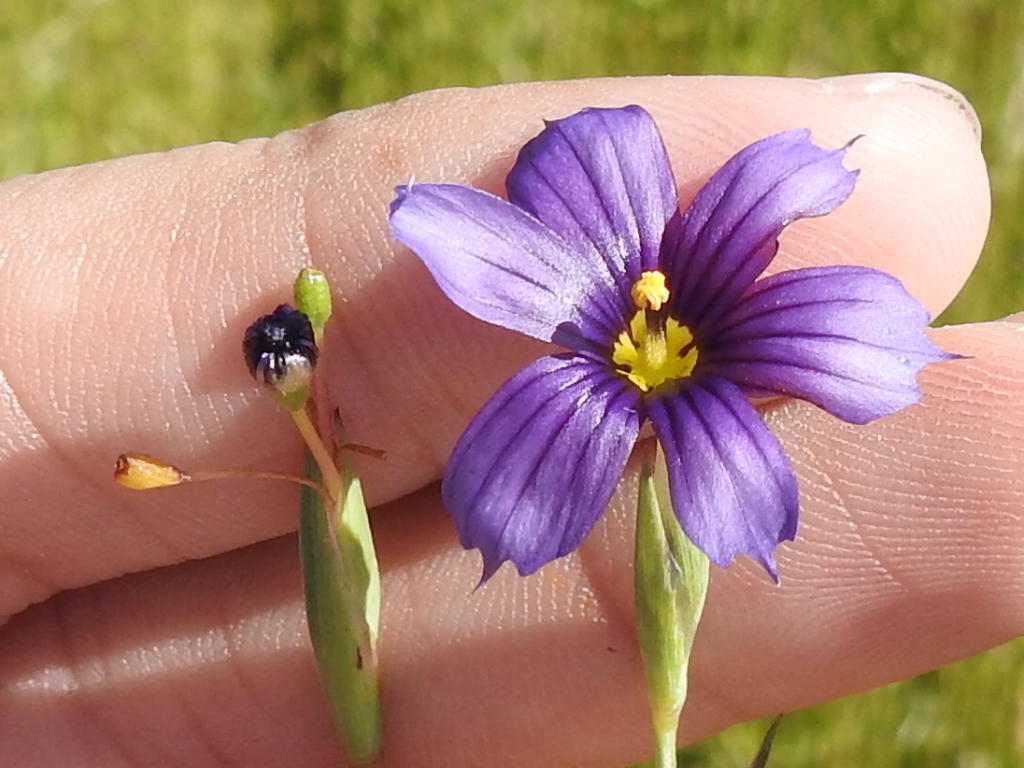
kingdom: Plantae
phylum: Tracheophyta
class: Liliopsida
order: Asparagales
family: Iridaceae
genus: Sisyrinchium
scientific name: Sisyrinchium bellum
